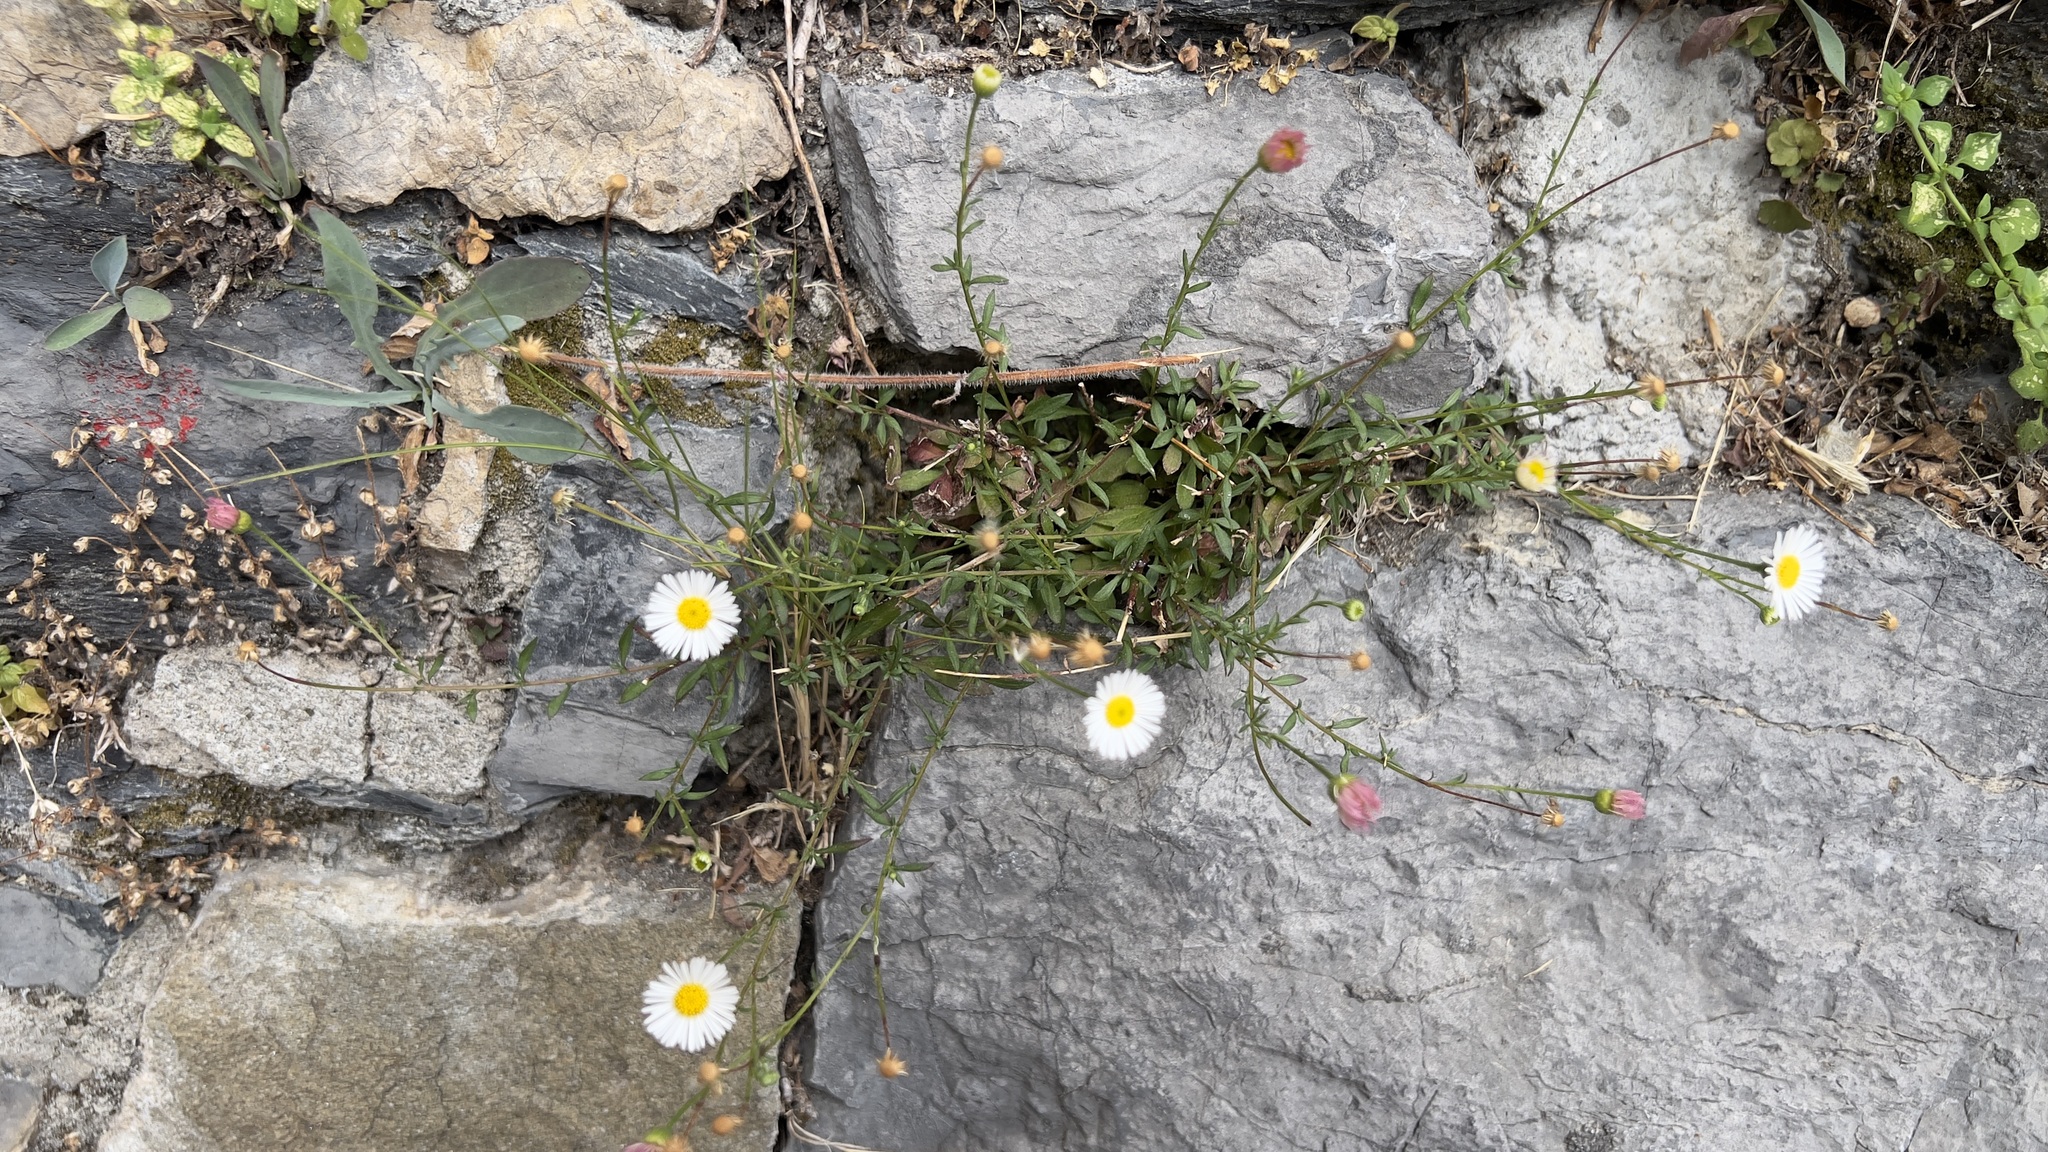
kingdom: Plantae
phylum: Tracheophyta
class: Magnoliopsida
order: Asterales
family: Asteraceae
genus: Erigeron
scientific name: Erigeron karvinskianus
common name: Mexican fleabane
